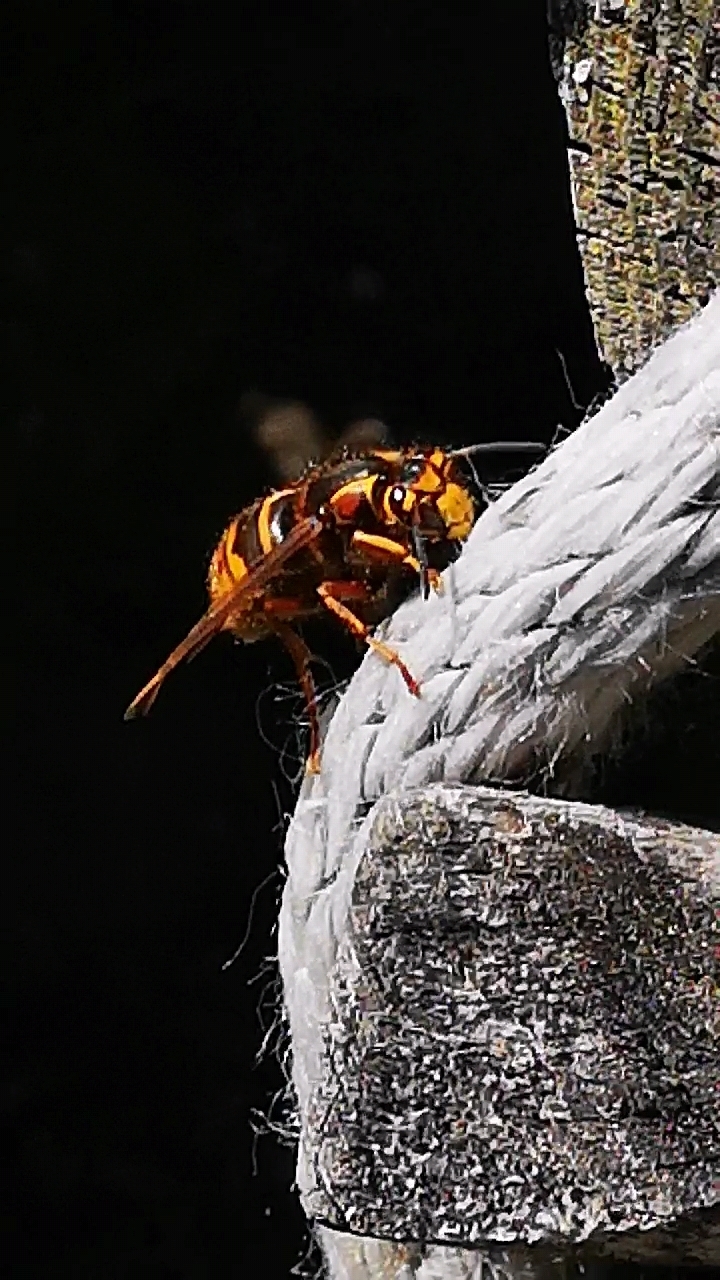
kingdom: Animalia
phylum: Arthropoda
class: Insecta
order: Hymenoptera
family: Vespidae
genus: Dolichovespula
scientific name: Dolichovespula media
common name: Median wasp
